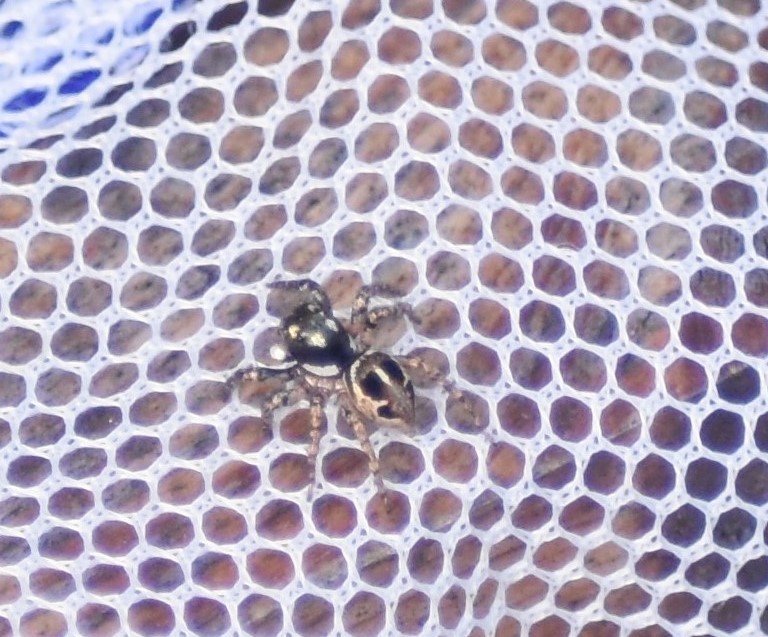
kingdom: Animalia
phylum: Arthropoda
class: Arachnida
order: Araneae
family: Salticidae
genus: Anasaitis
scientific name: Anasaitis canosa
